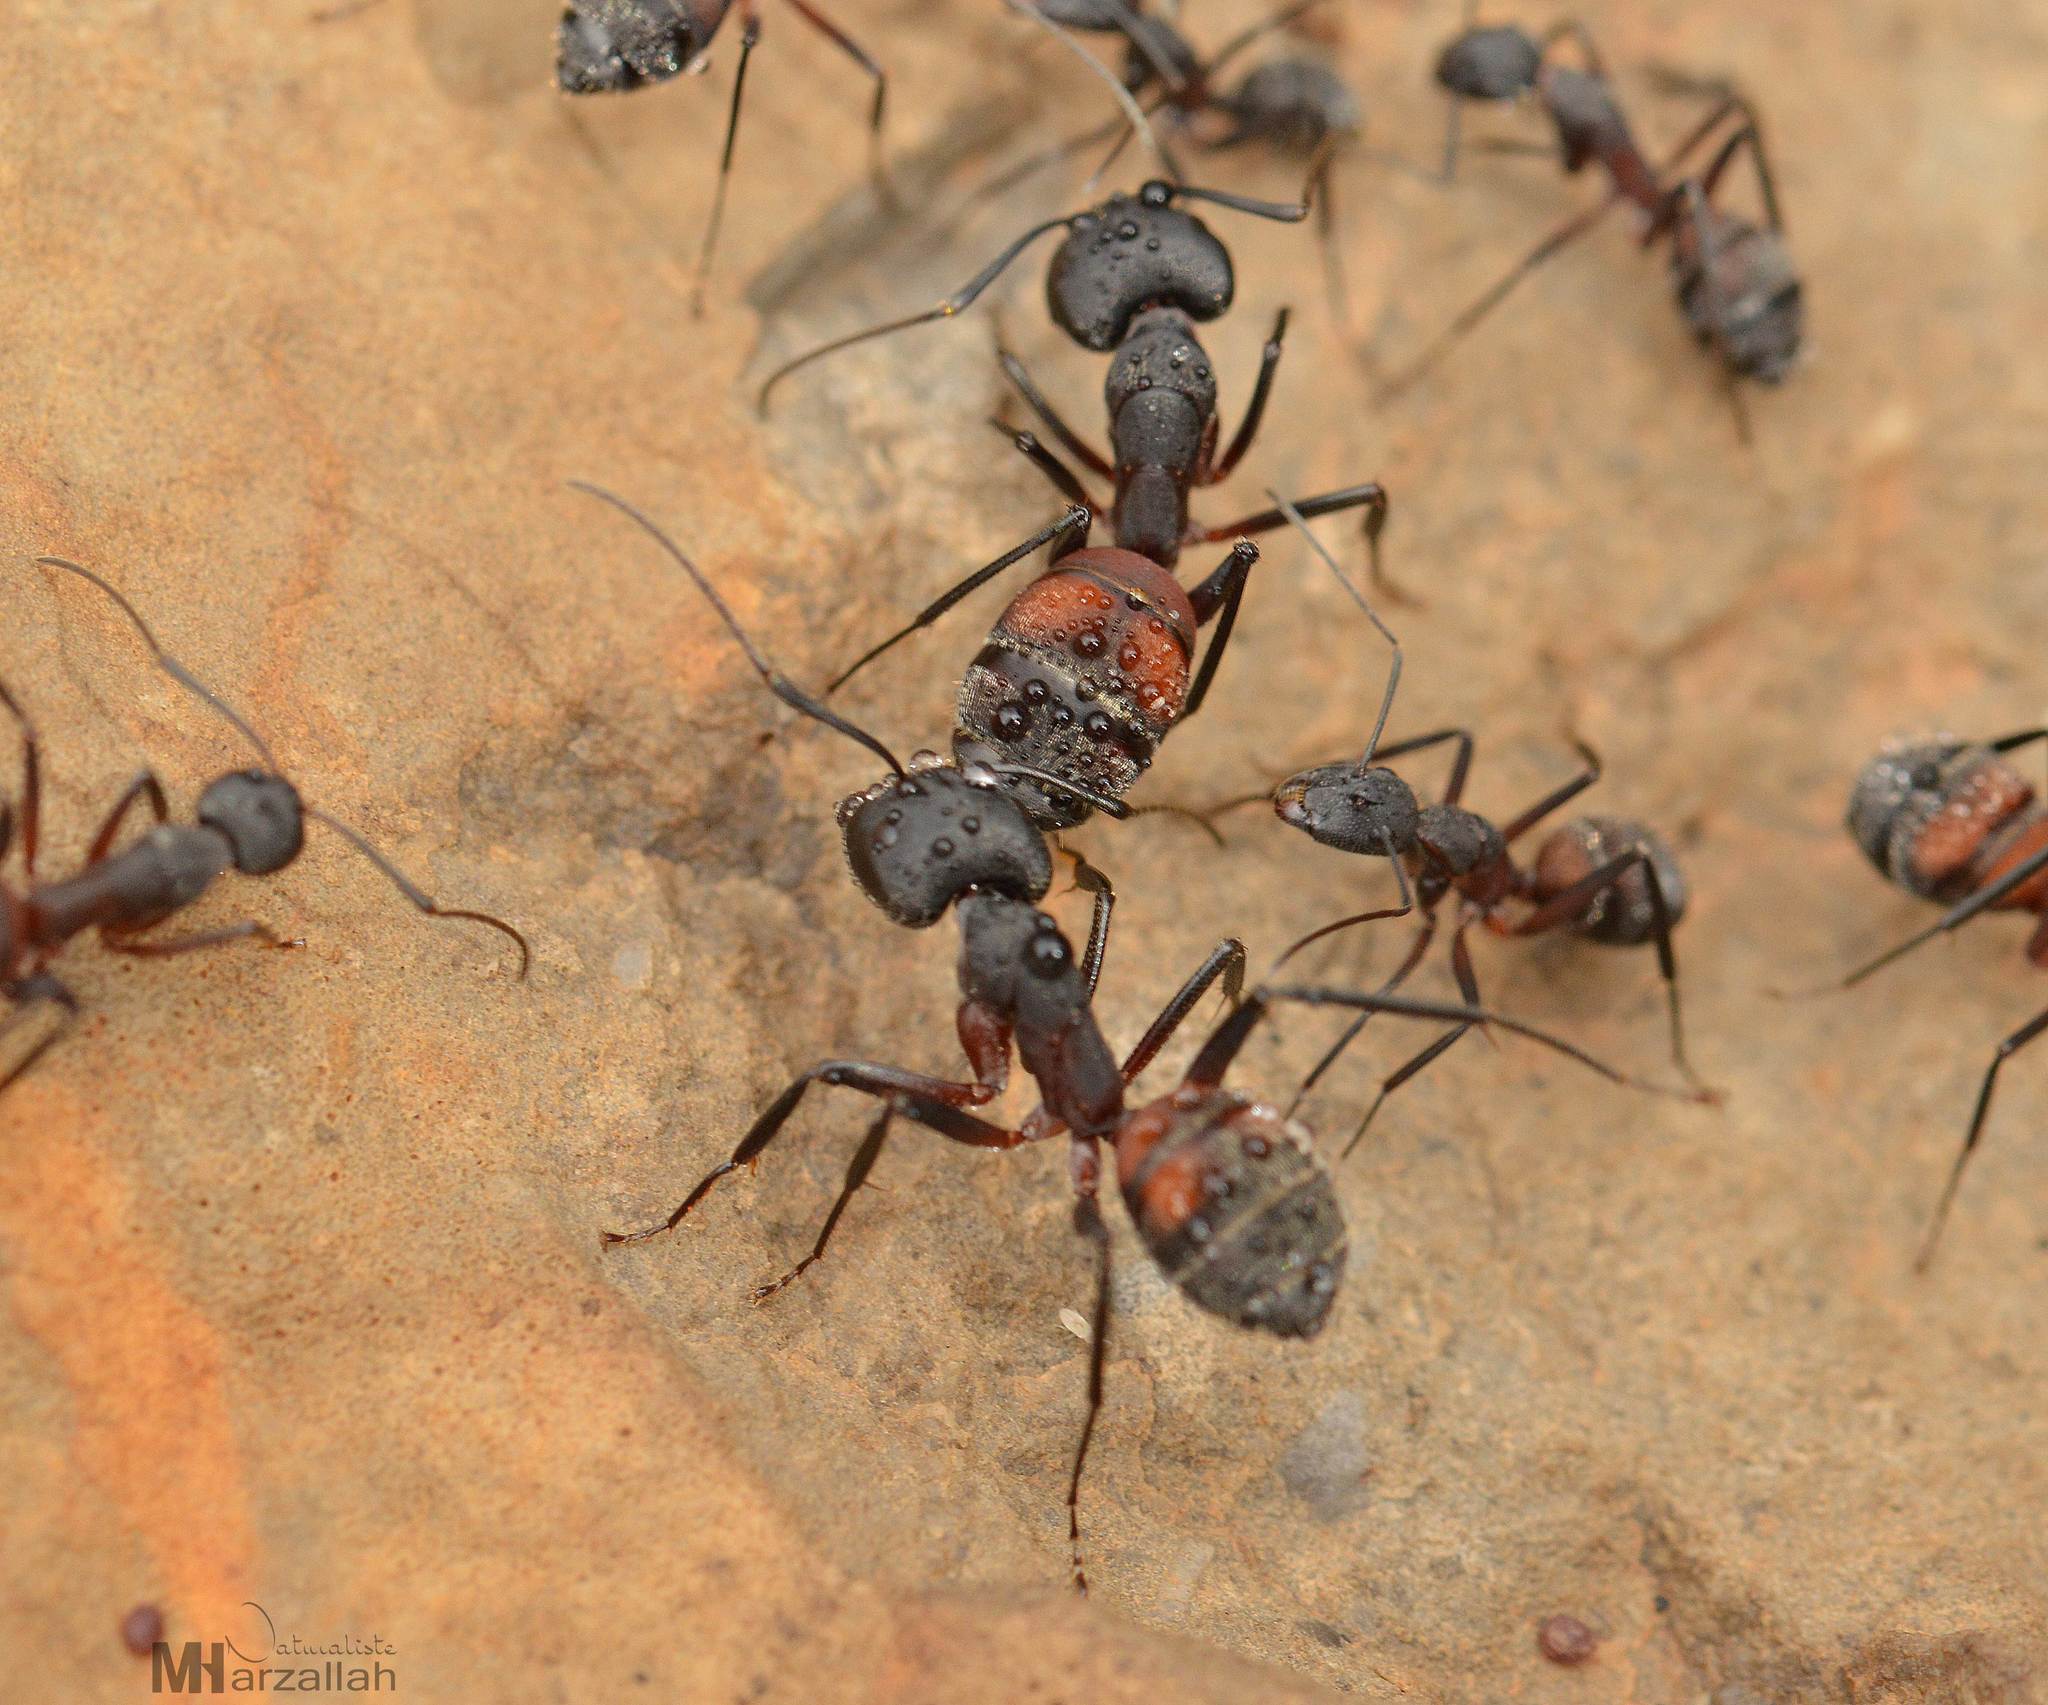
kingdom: Animalia
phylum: Arthropoda
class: Insecta
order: Hymenoptera
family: Formicidae
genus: Camponotus
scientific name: Camponotus cruentatus
